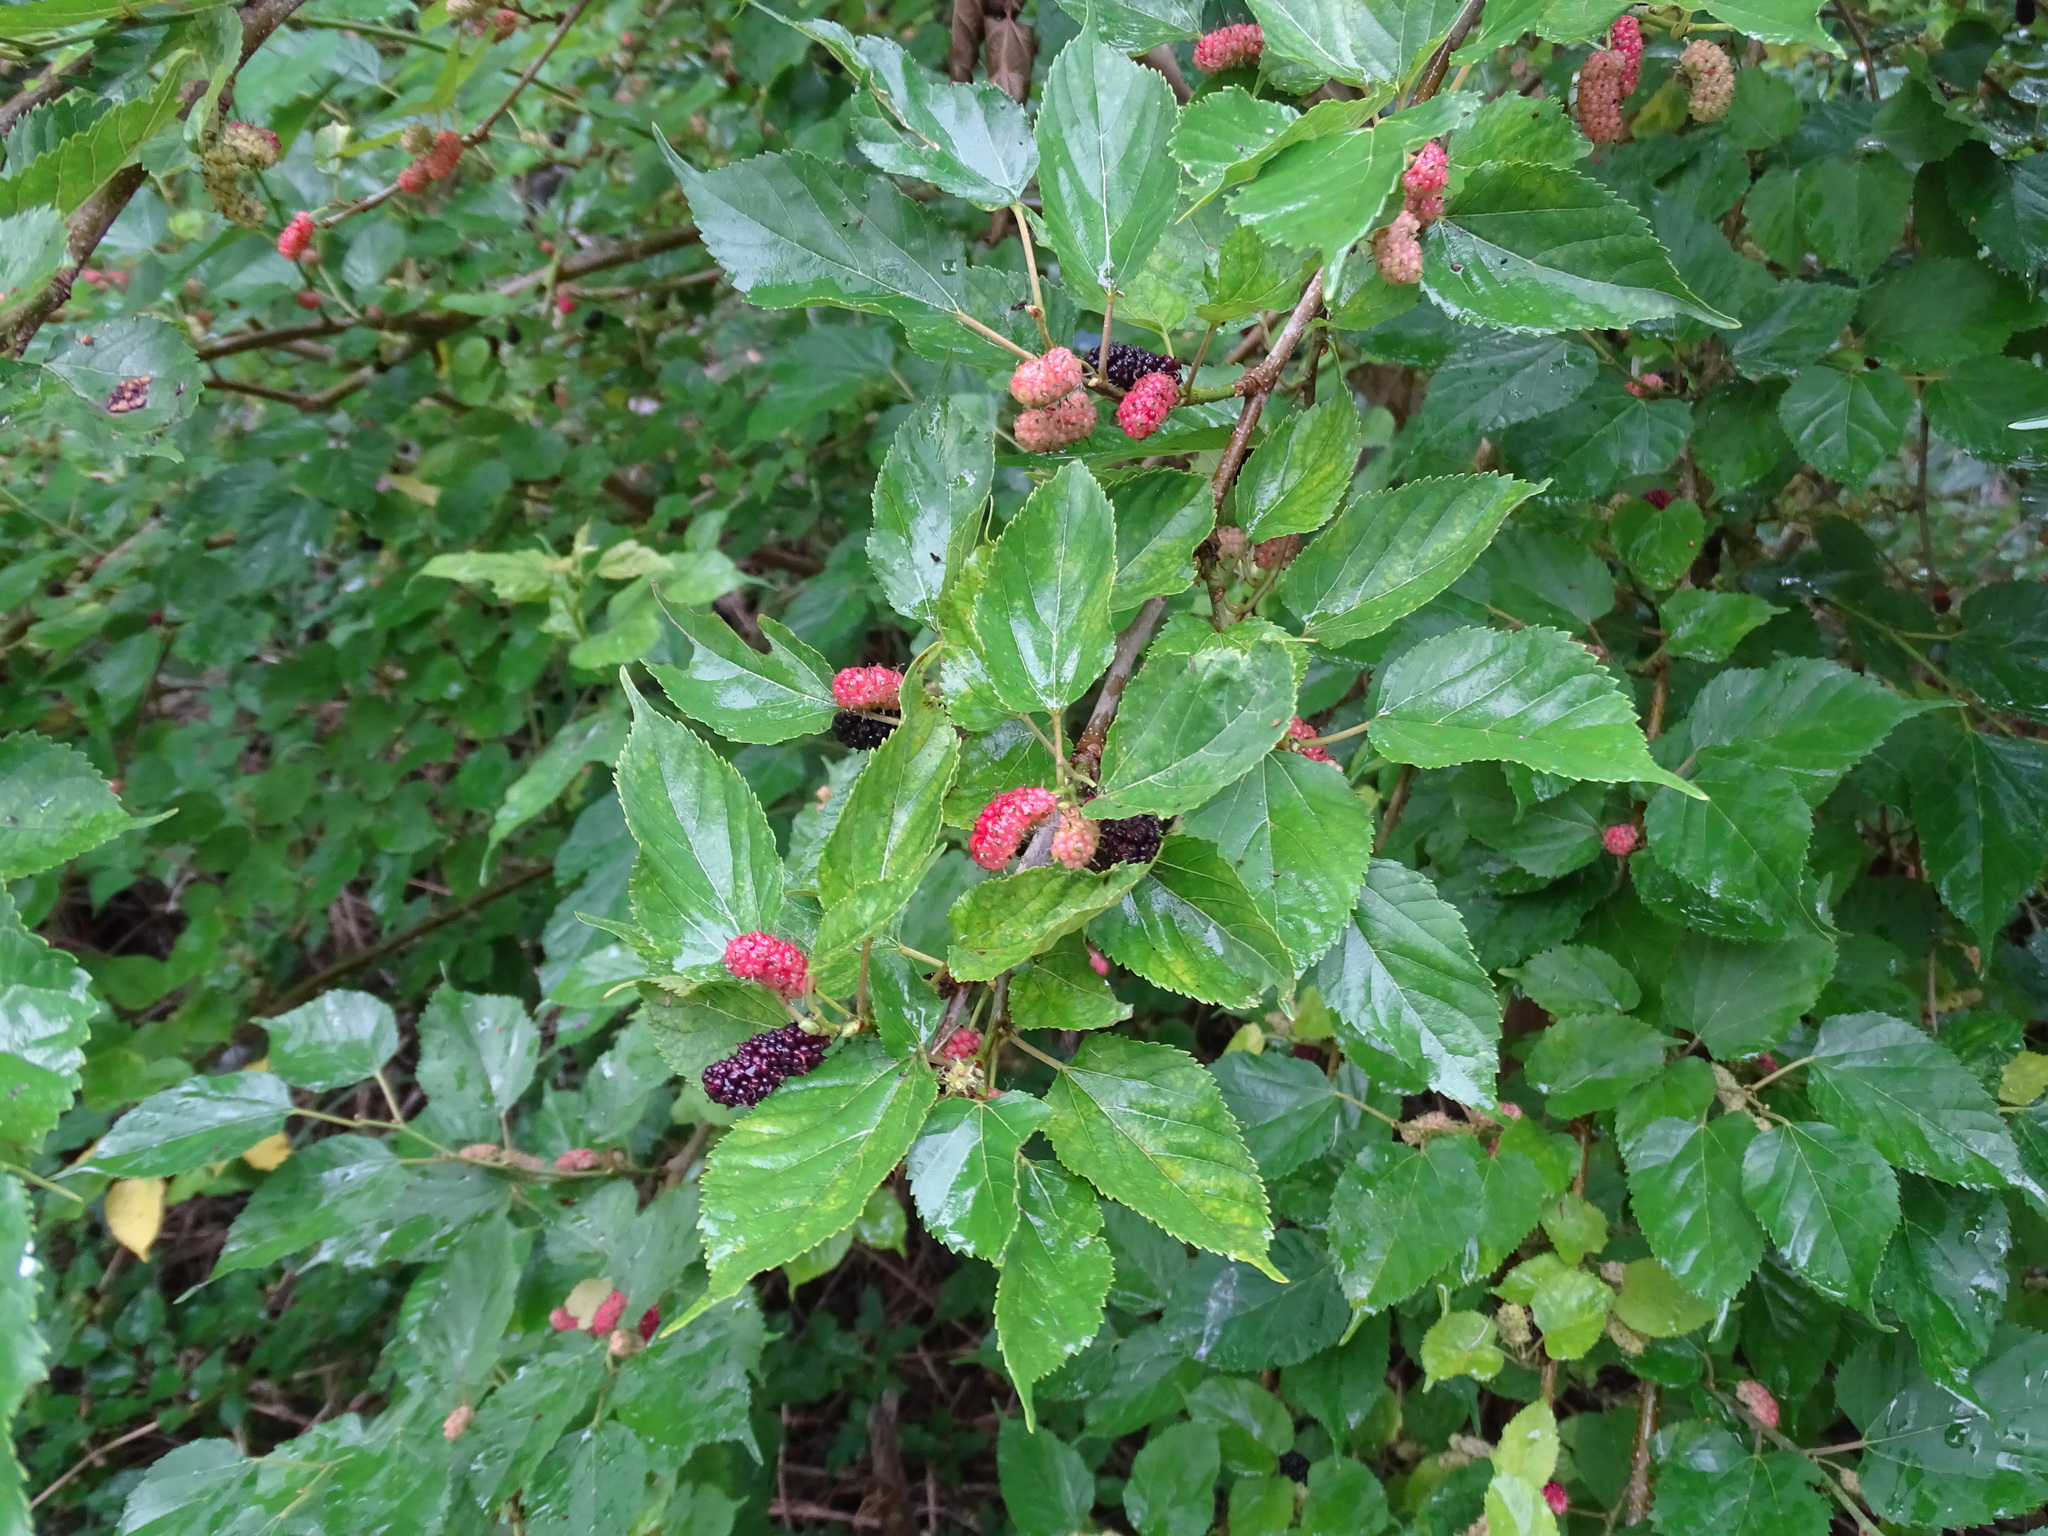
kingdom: Plantae
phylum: Tracheophyta
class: Magnoliopsida
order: Rosales
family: Moraceae
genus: Morus
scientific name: Morus indica
